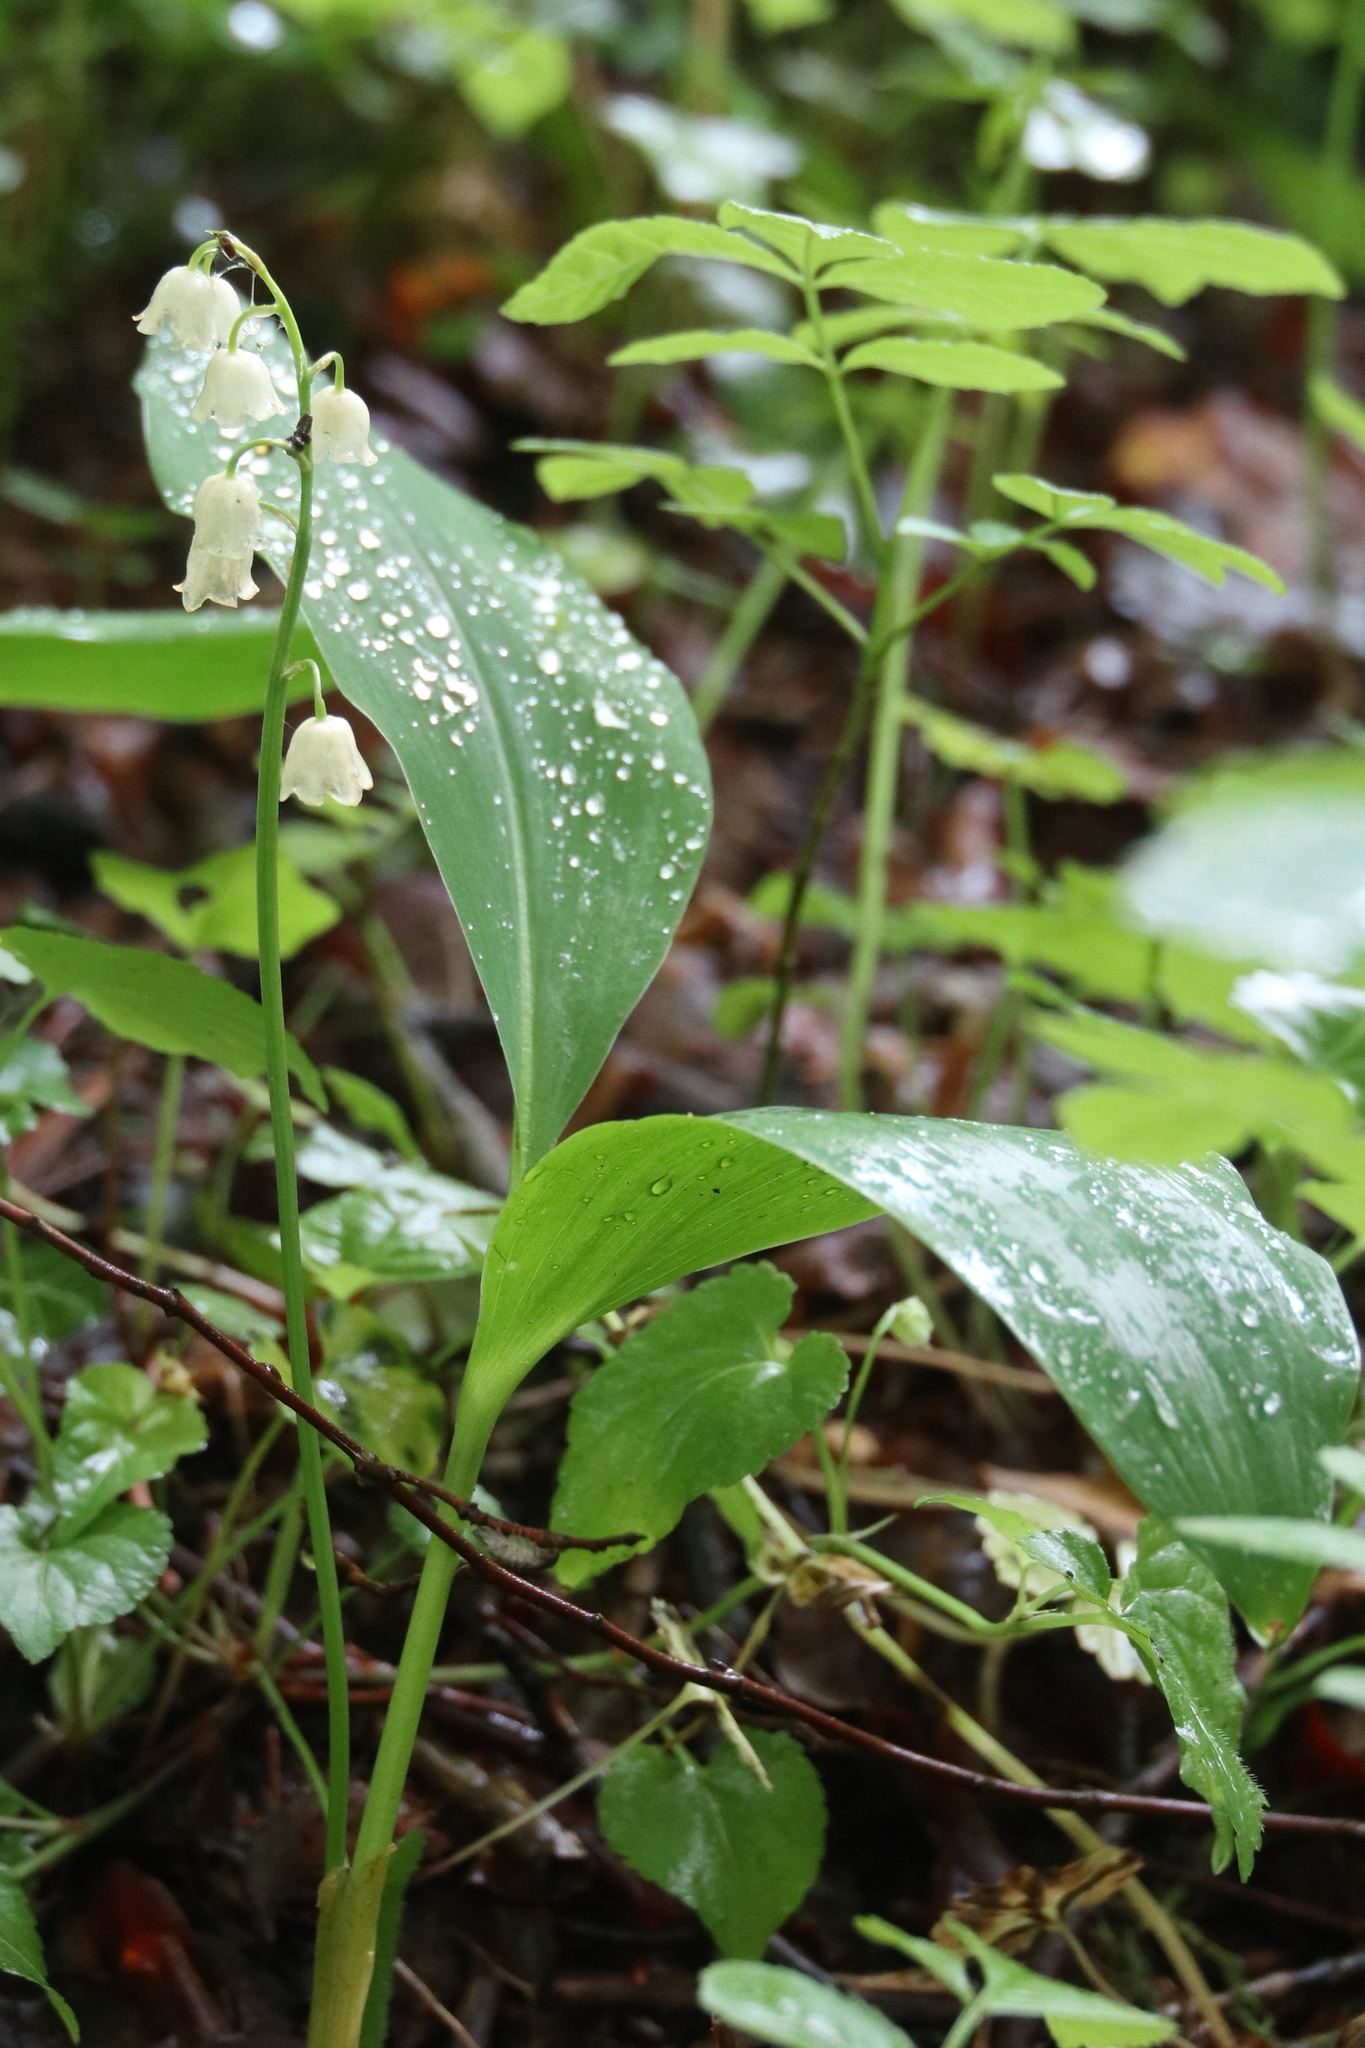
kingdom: Plantae
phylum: Tracheophyta
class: Liliopsida
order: Asparagales
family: Asparagaceae
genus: Convallaria
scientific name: Convallaria majalis
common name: Lily-of-the-valley
